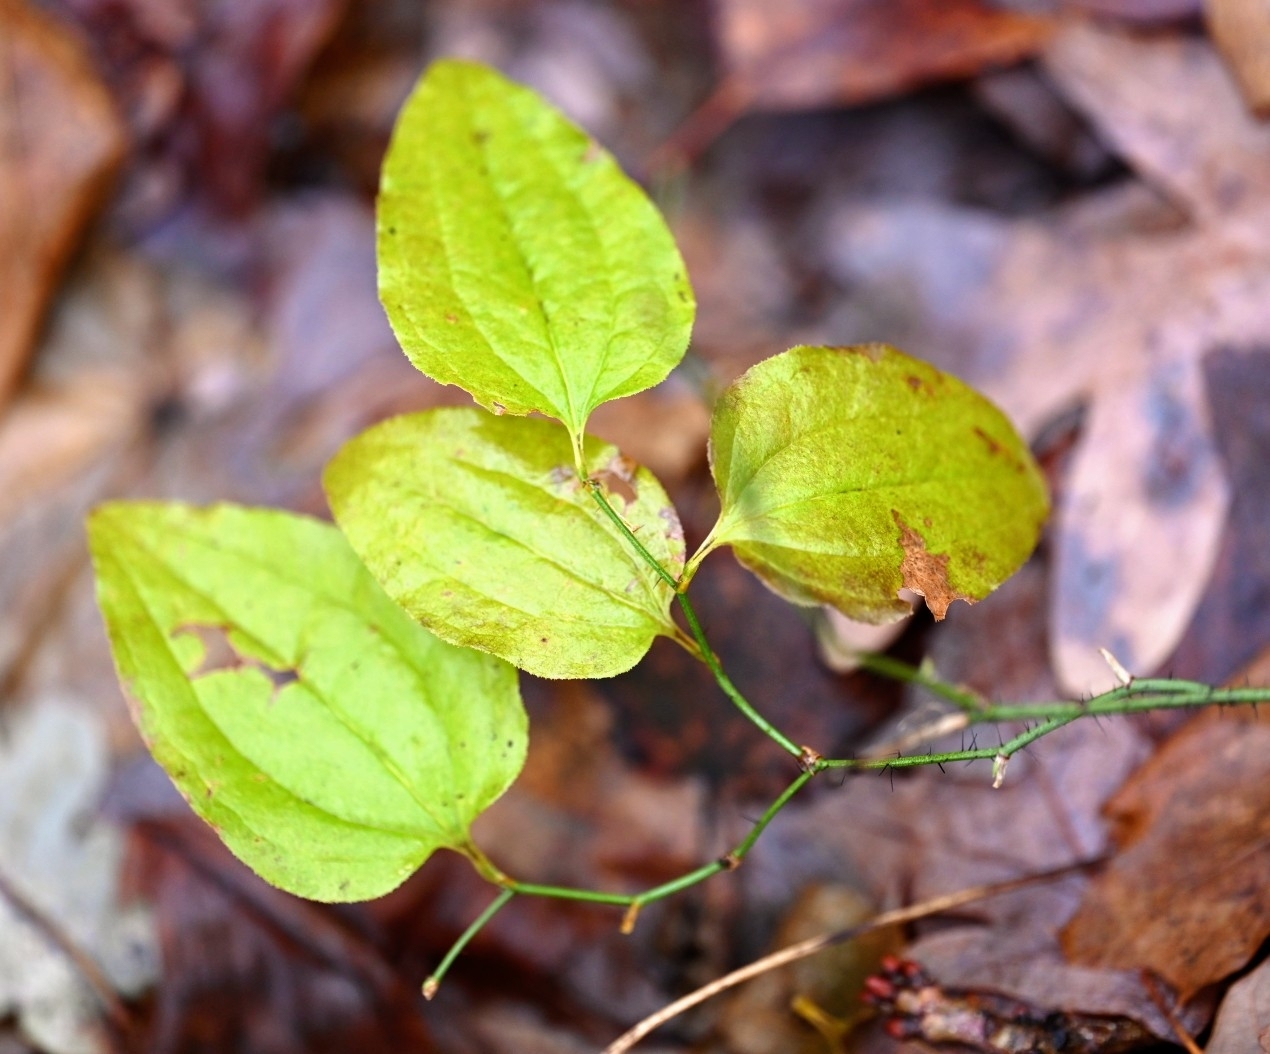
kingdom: Plantae
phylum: Tracheophyta
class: Liliopsida
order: Liliales
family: Smilacaceae
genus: Smilax
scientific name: Smilax tamnoides
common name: Hellfetter
